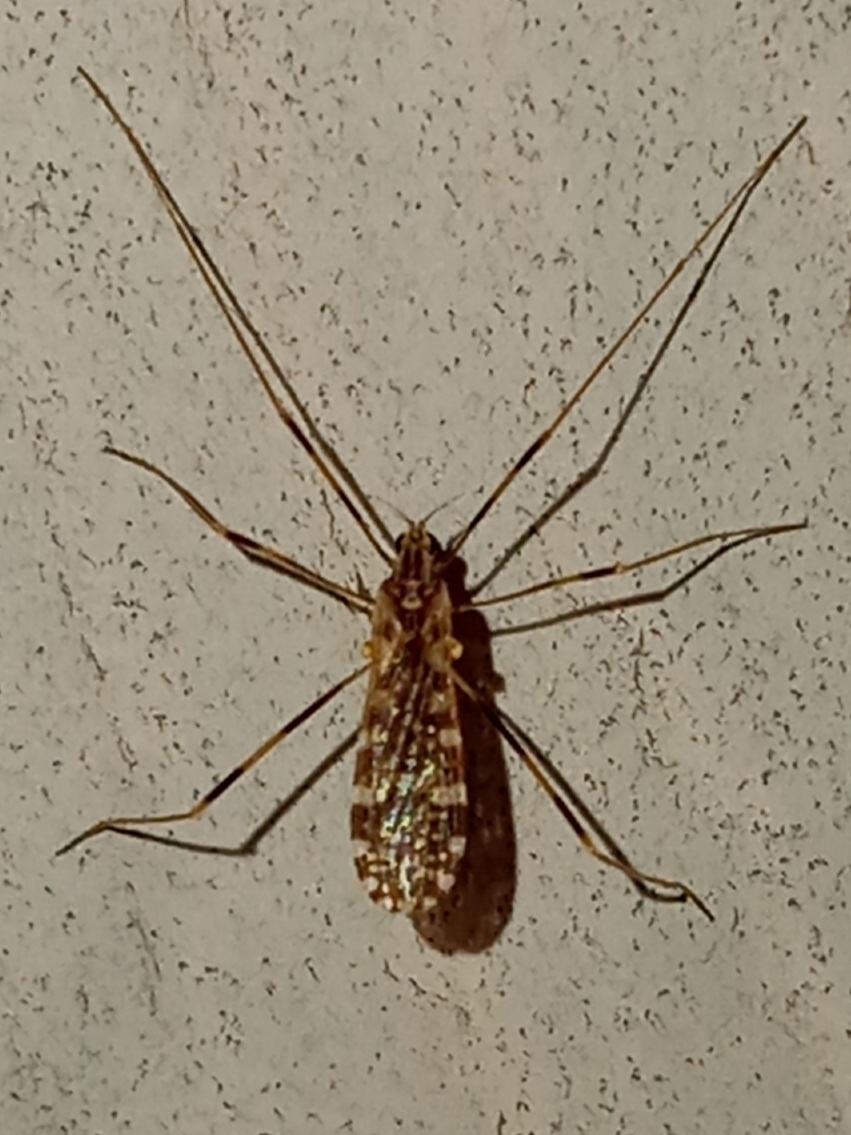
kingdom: Animalia
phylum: Arthropoda
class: Insecta
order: Diptera
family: Limoniidae
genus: Erioptera
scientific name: Erioptera caliptera
